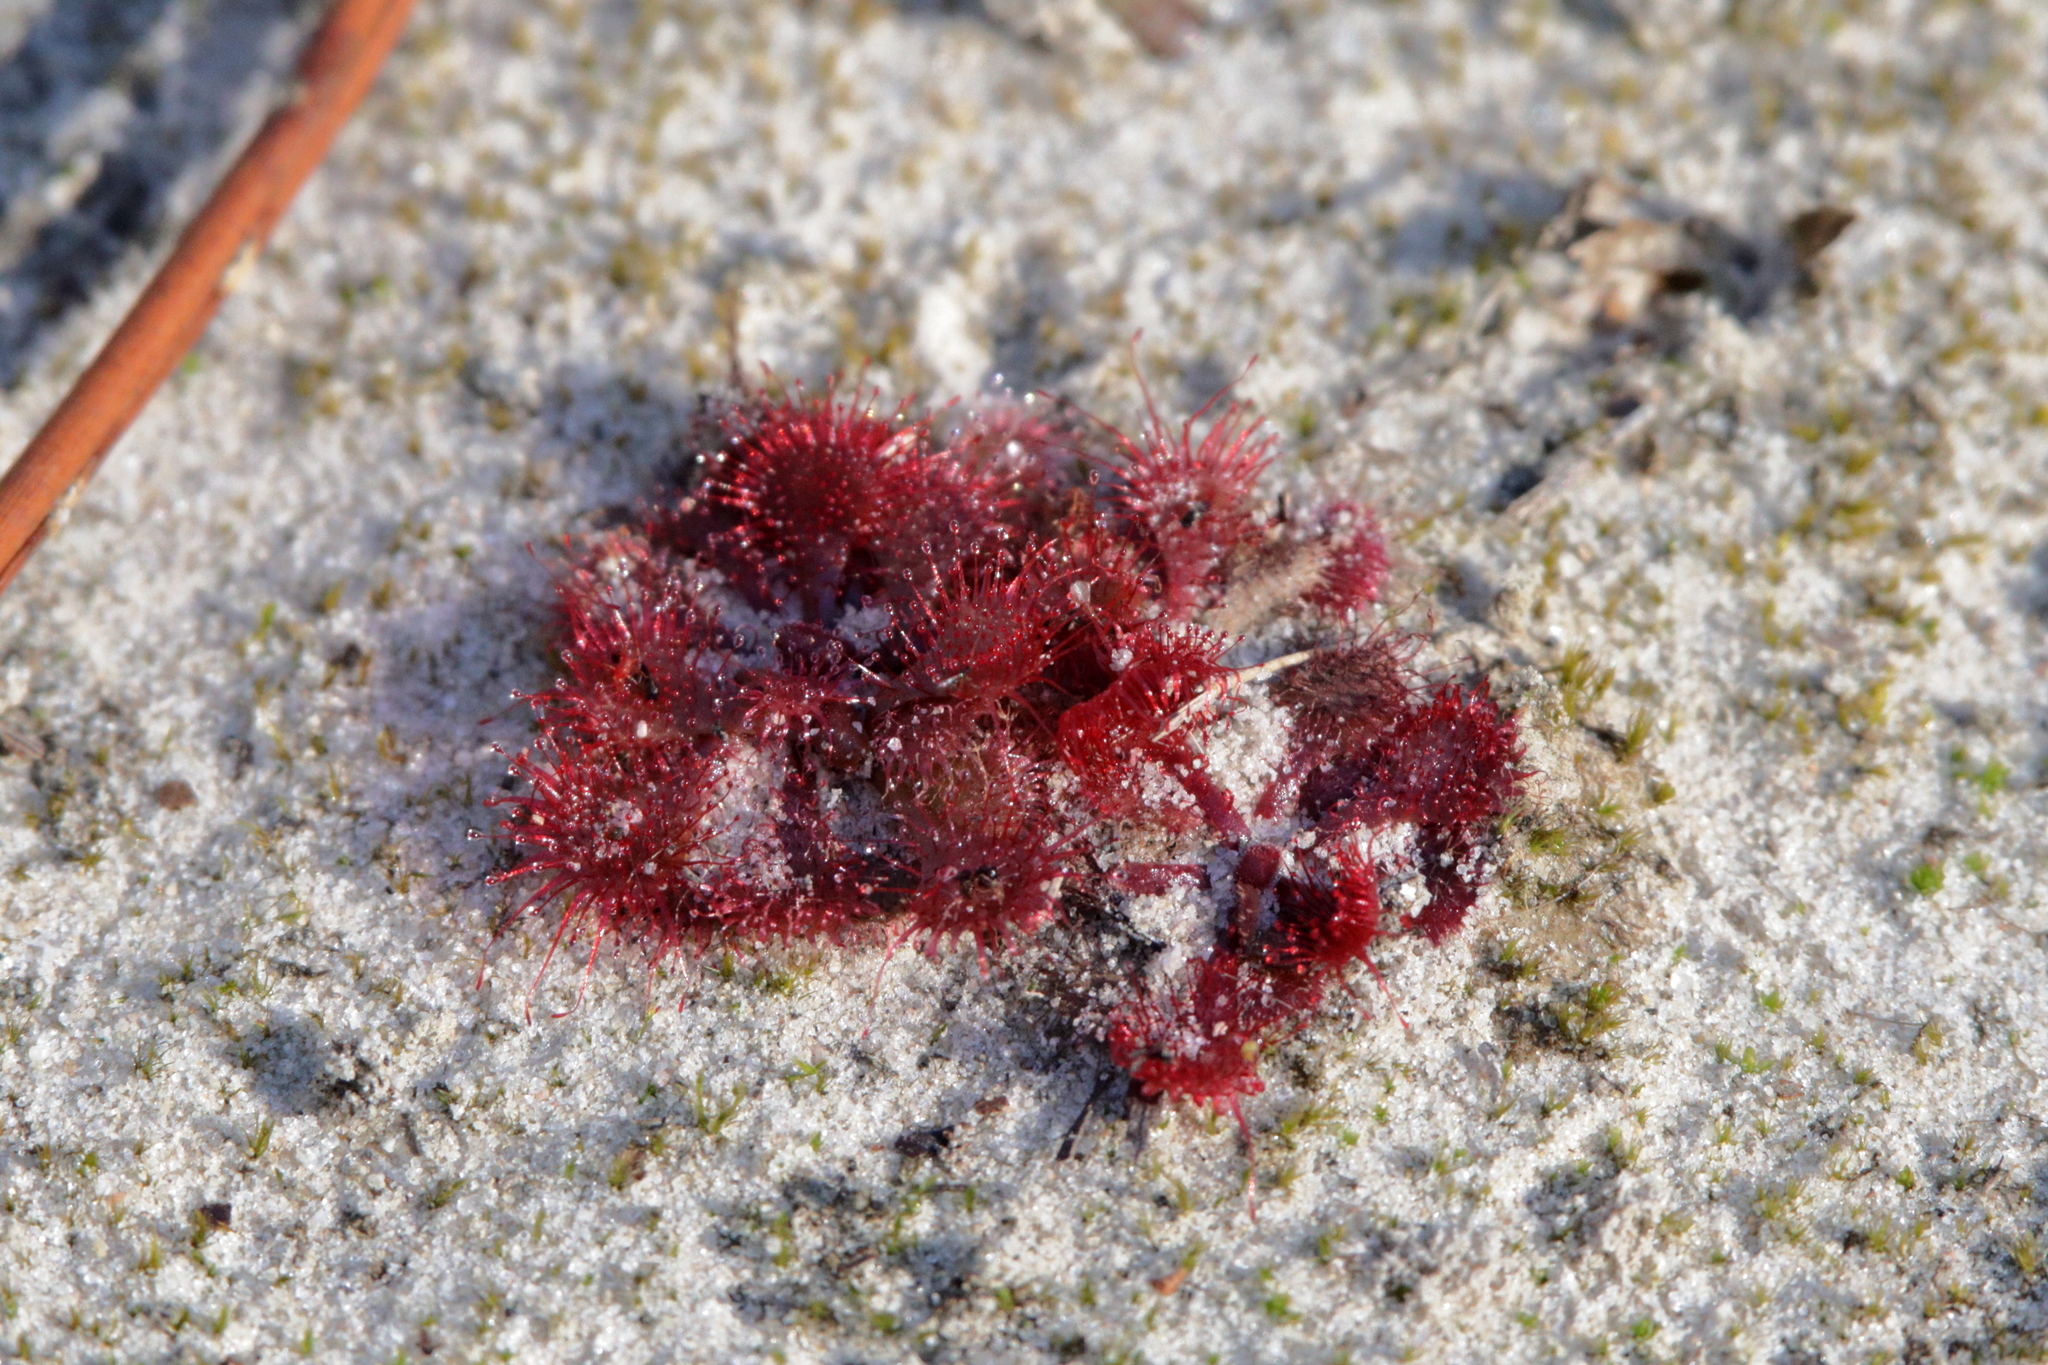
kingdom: Plantae
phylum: Tracheophyta
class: Magnoliopsida
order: Caryophyllales
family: Droseraceae
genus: Drosera
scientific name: Drosera brevifolia
